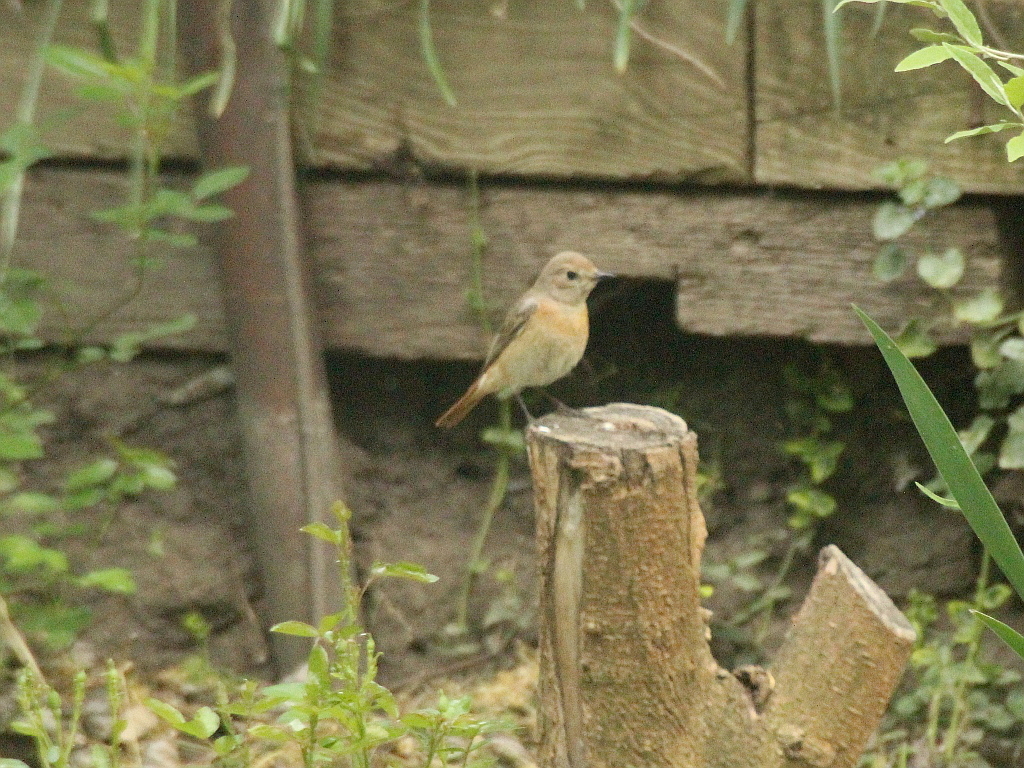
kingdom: Animalia
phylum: Chordata
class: Aves
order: Passeriformes
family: Muscicapidae
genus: Phoenicurus
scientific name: Phoenicurus phoenicurus
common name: Common redstart
